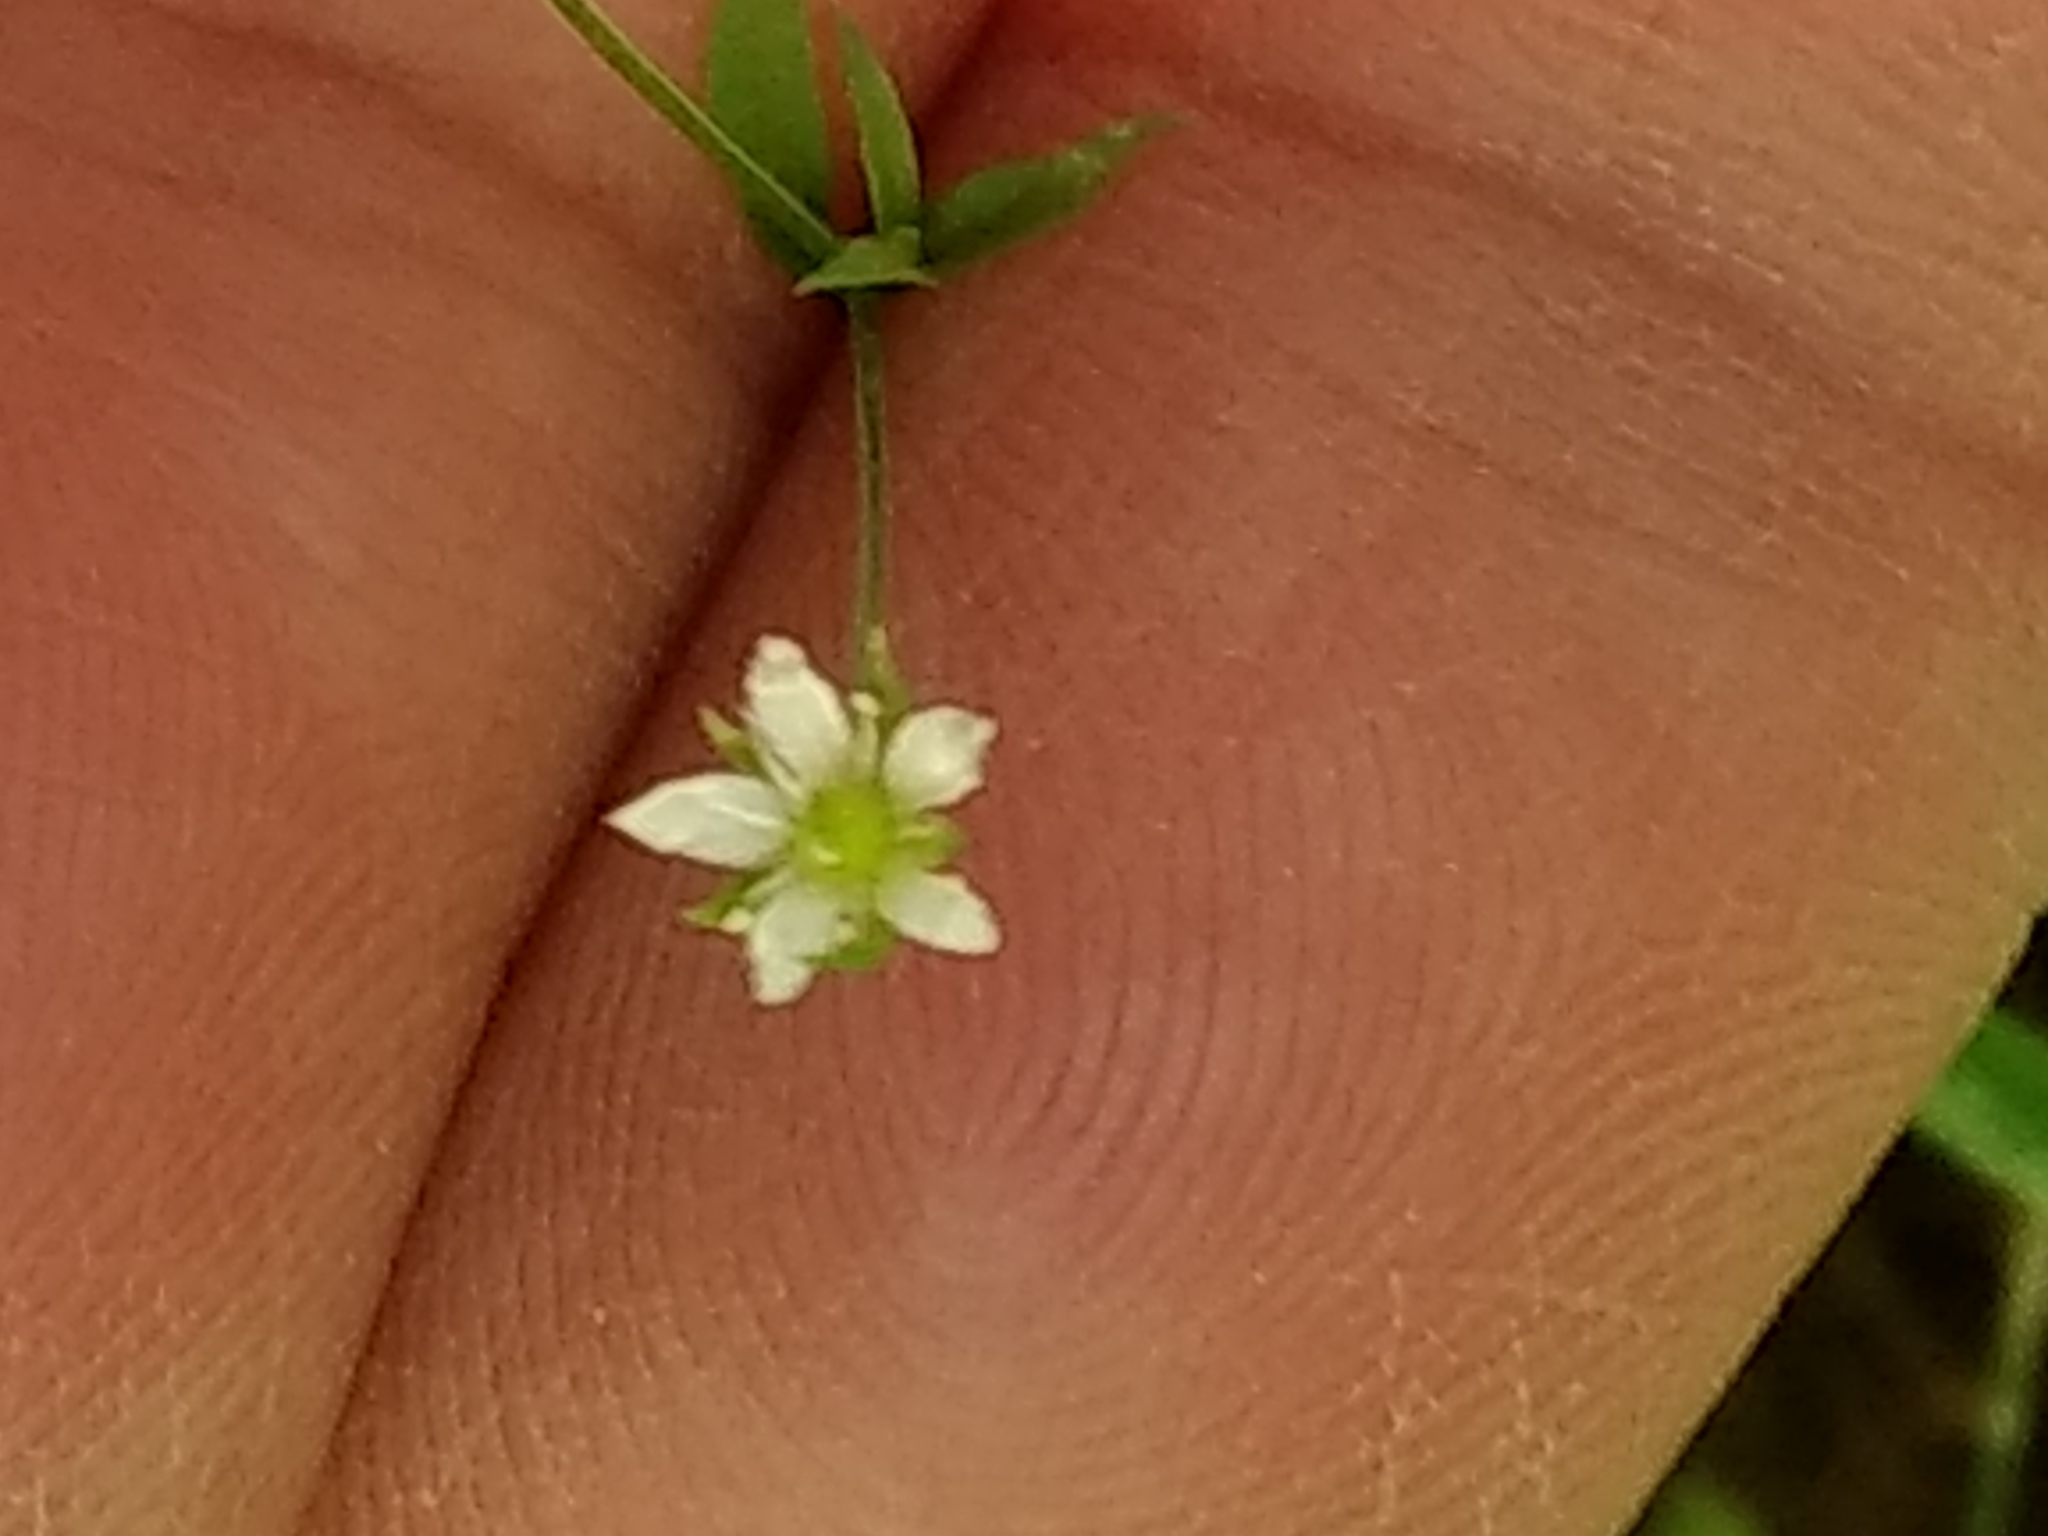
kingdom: Plantae
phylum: Tracheophyta
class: Magnoliopsida
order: Caryophyllales
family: Caryophyllaceae
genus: Arenaria
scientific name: Arenaria lanuginosa
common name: Spread sandwort
